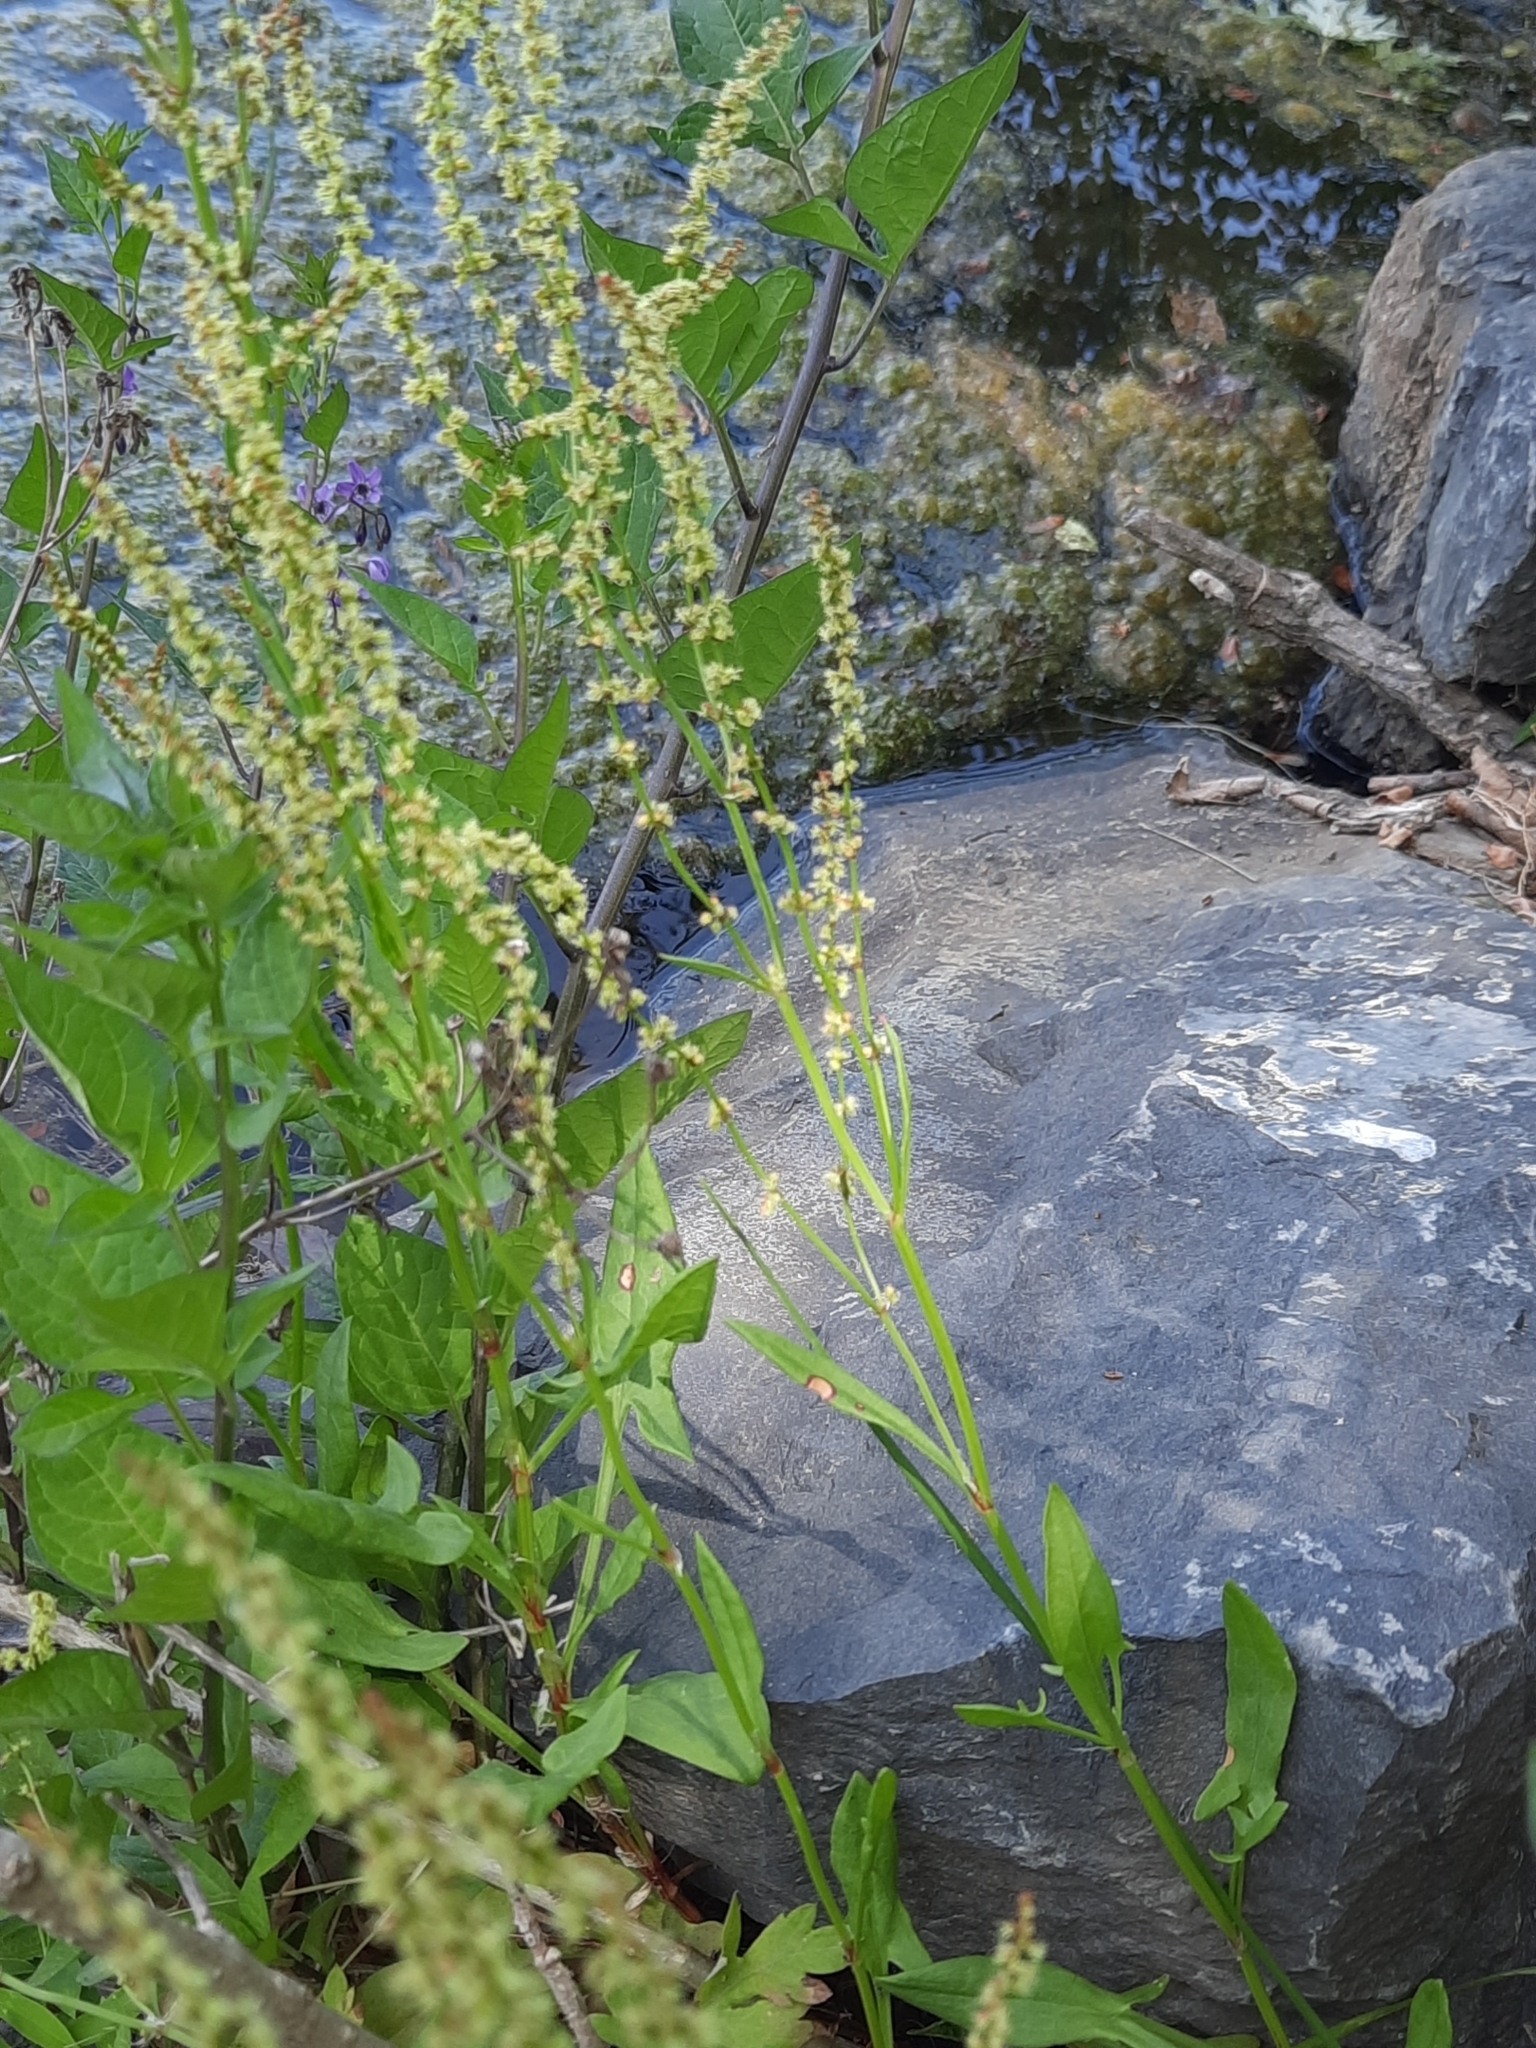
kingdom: Plantae
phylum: Tracheophyta
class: Magnoliopsida
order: Caryophyllales
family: Polygonaceae
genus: Rumex
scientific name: Rumex acetosella
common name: Common sheep sorrel
